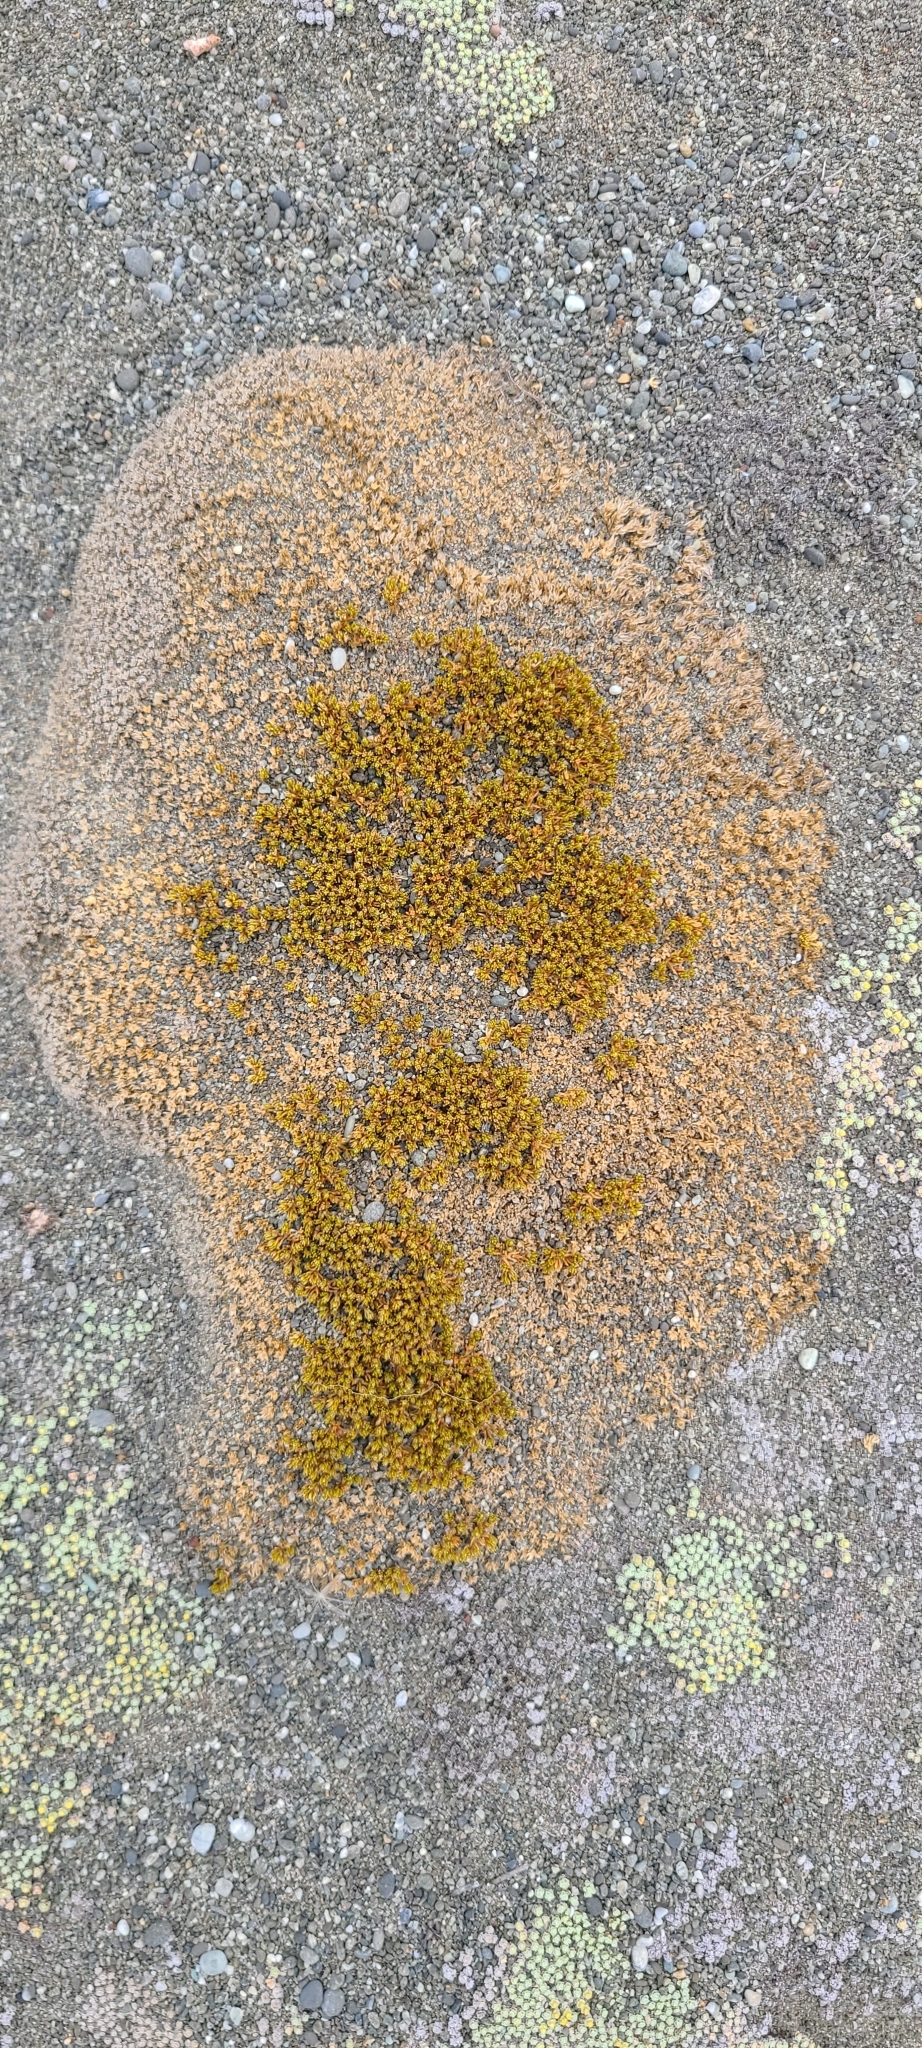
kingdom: Plantae
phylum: Tracheophyta
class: Magnoliopsida
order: Caryophyllales
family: Caryophyllaceae
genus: Scleranthus
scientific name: Scleranthus uniflorus
